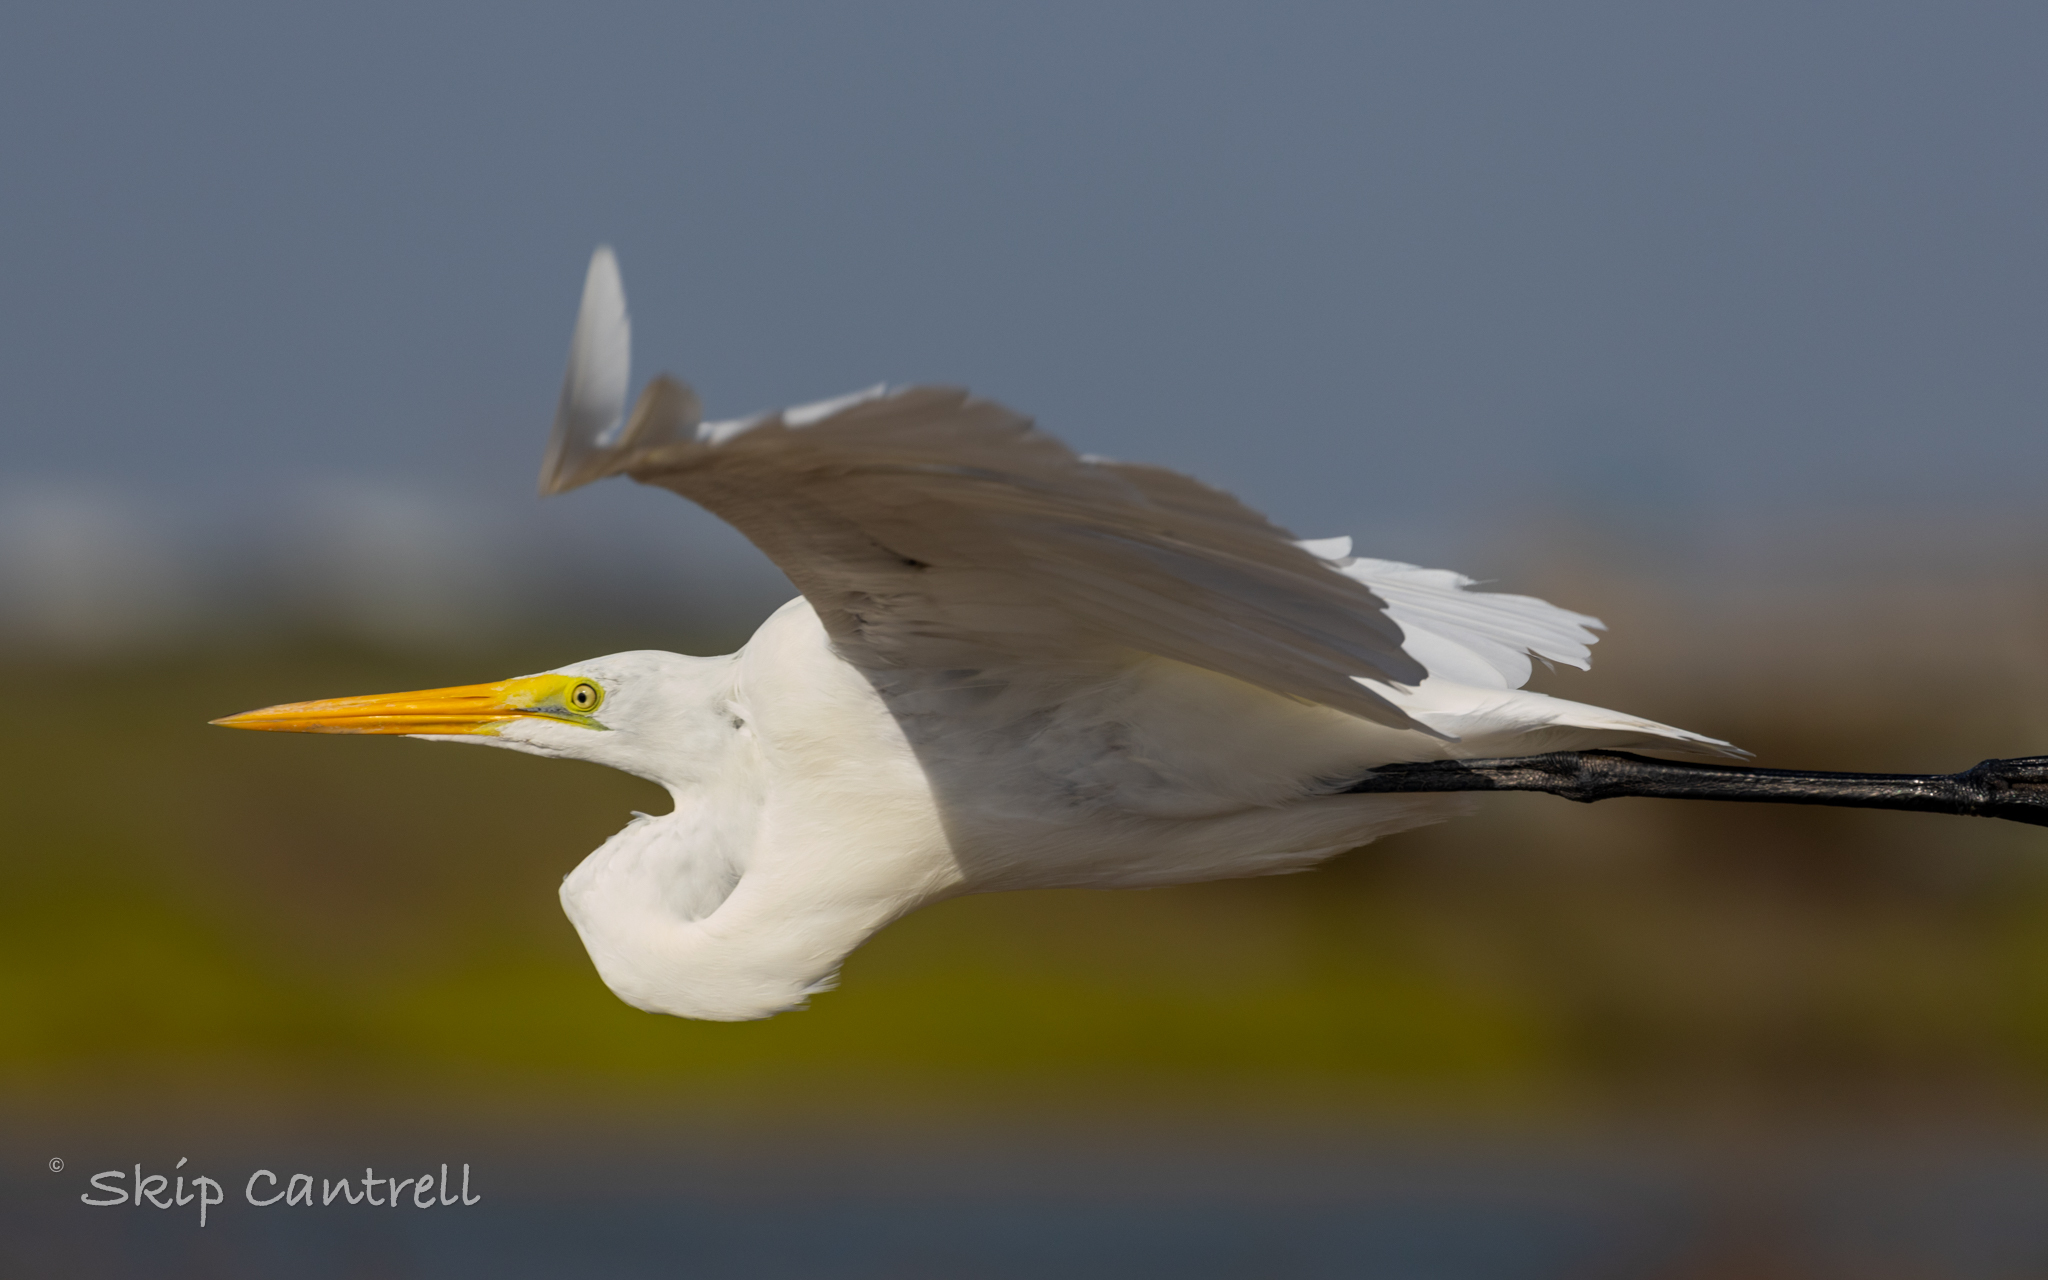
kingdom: Animalia
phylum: Chordata
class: Aves
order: Pelecaniformes
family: Ardeidae
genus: Ardea
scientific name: Ardea alba
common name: Great egret
